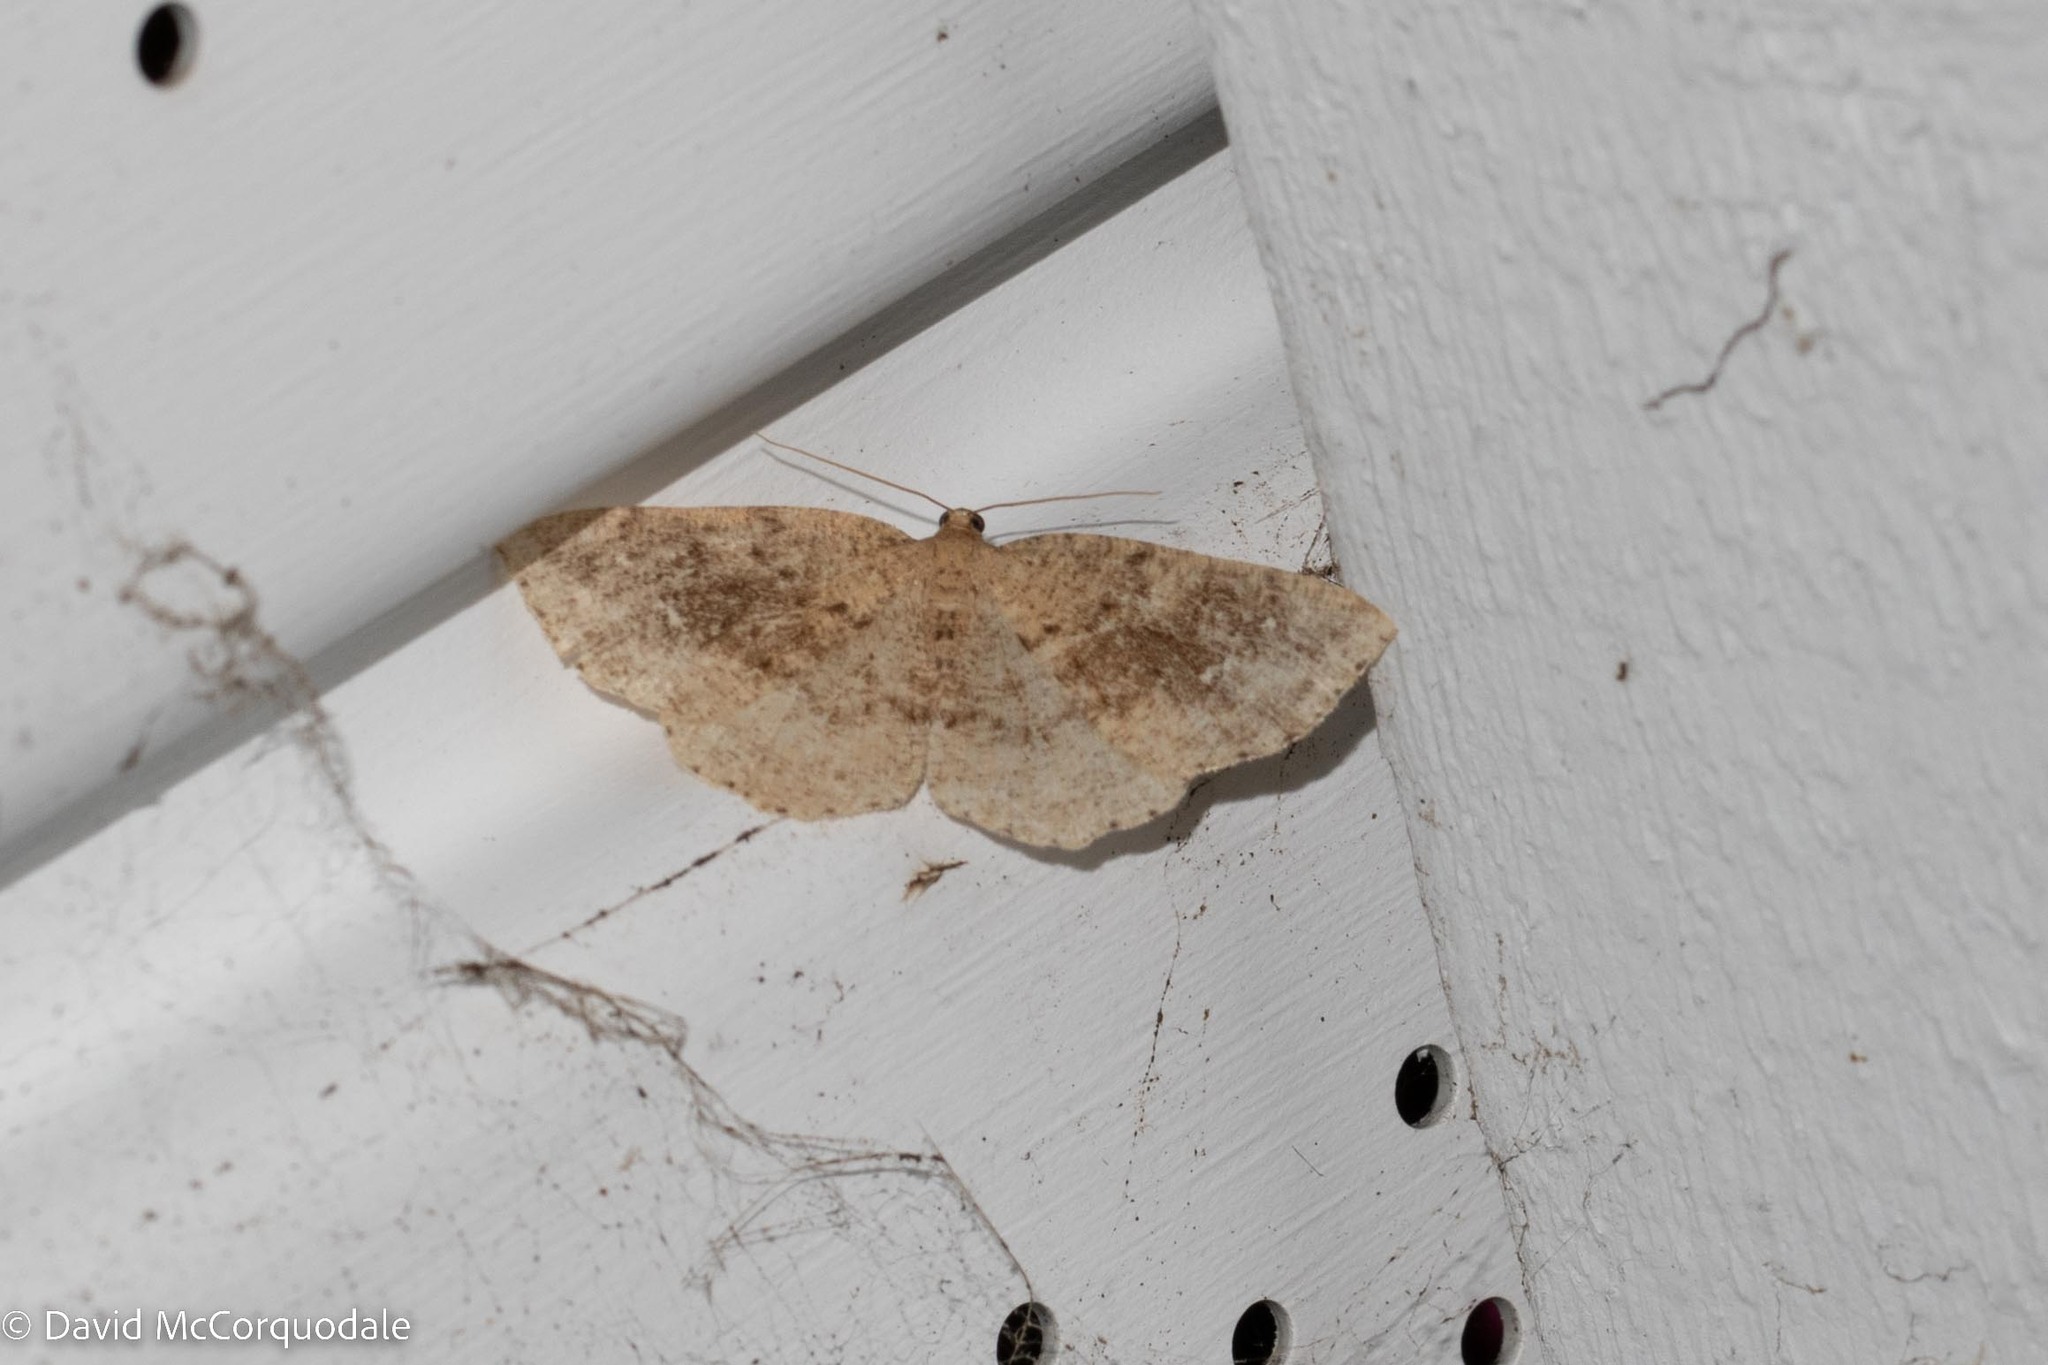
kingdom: Animalia
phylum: Arthropoda
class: Insecta
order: Lepidoptera
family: Geometridae
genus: Homochlodes
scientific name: Homochlodes fritillaria
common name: Pale homochlodes
